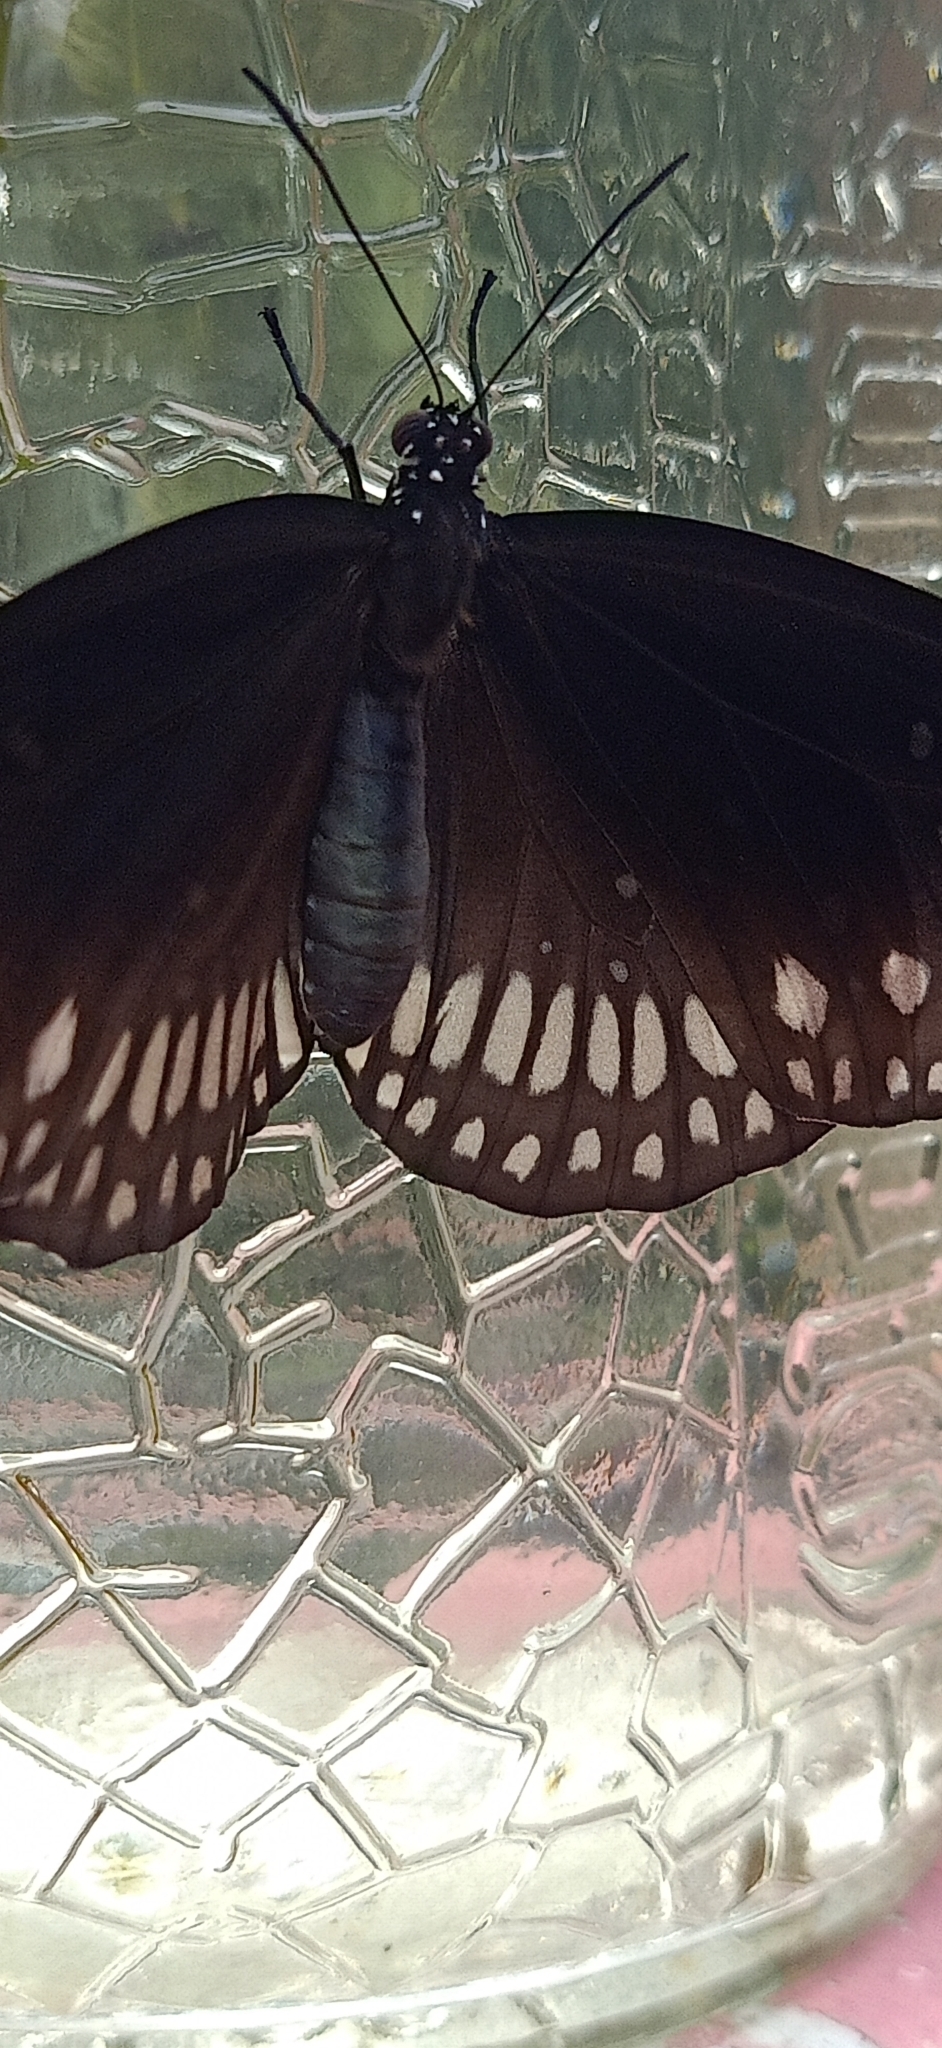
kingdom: Animalia
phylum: Arthropoda
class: Insecta
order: Lepidoptera
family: Nymphalidae
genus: Euploea
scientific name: Euploea core
